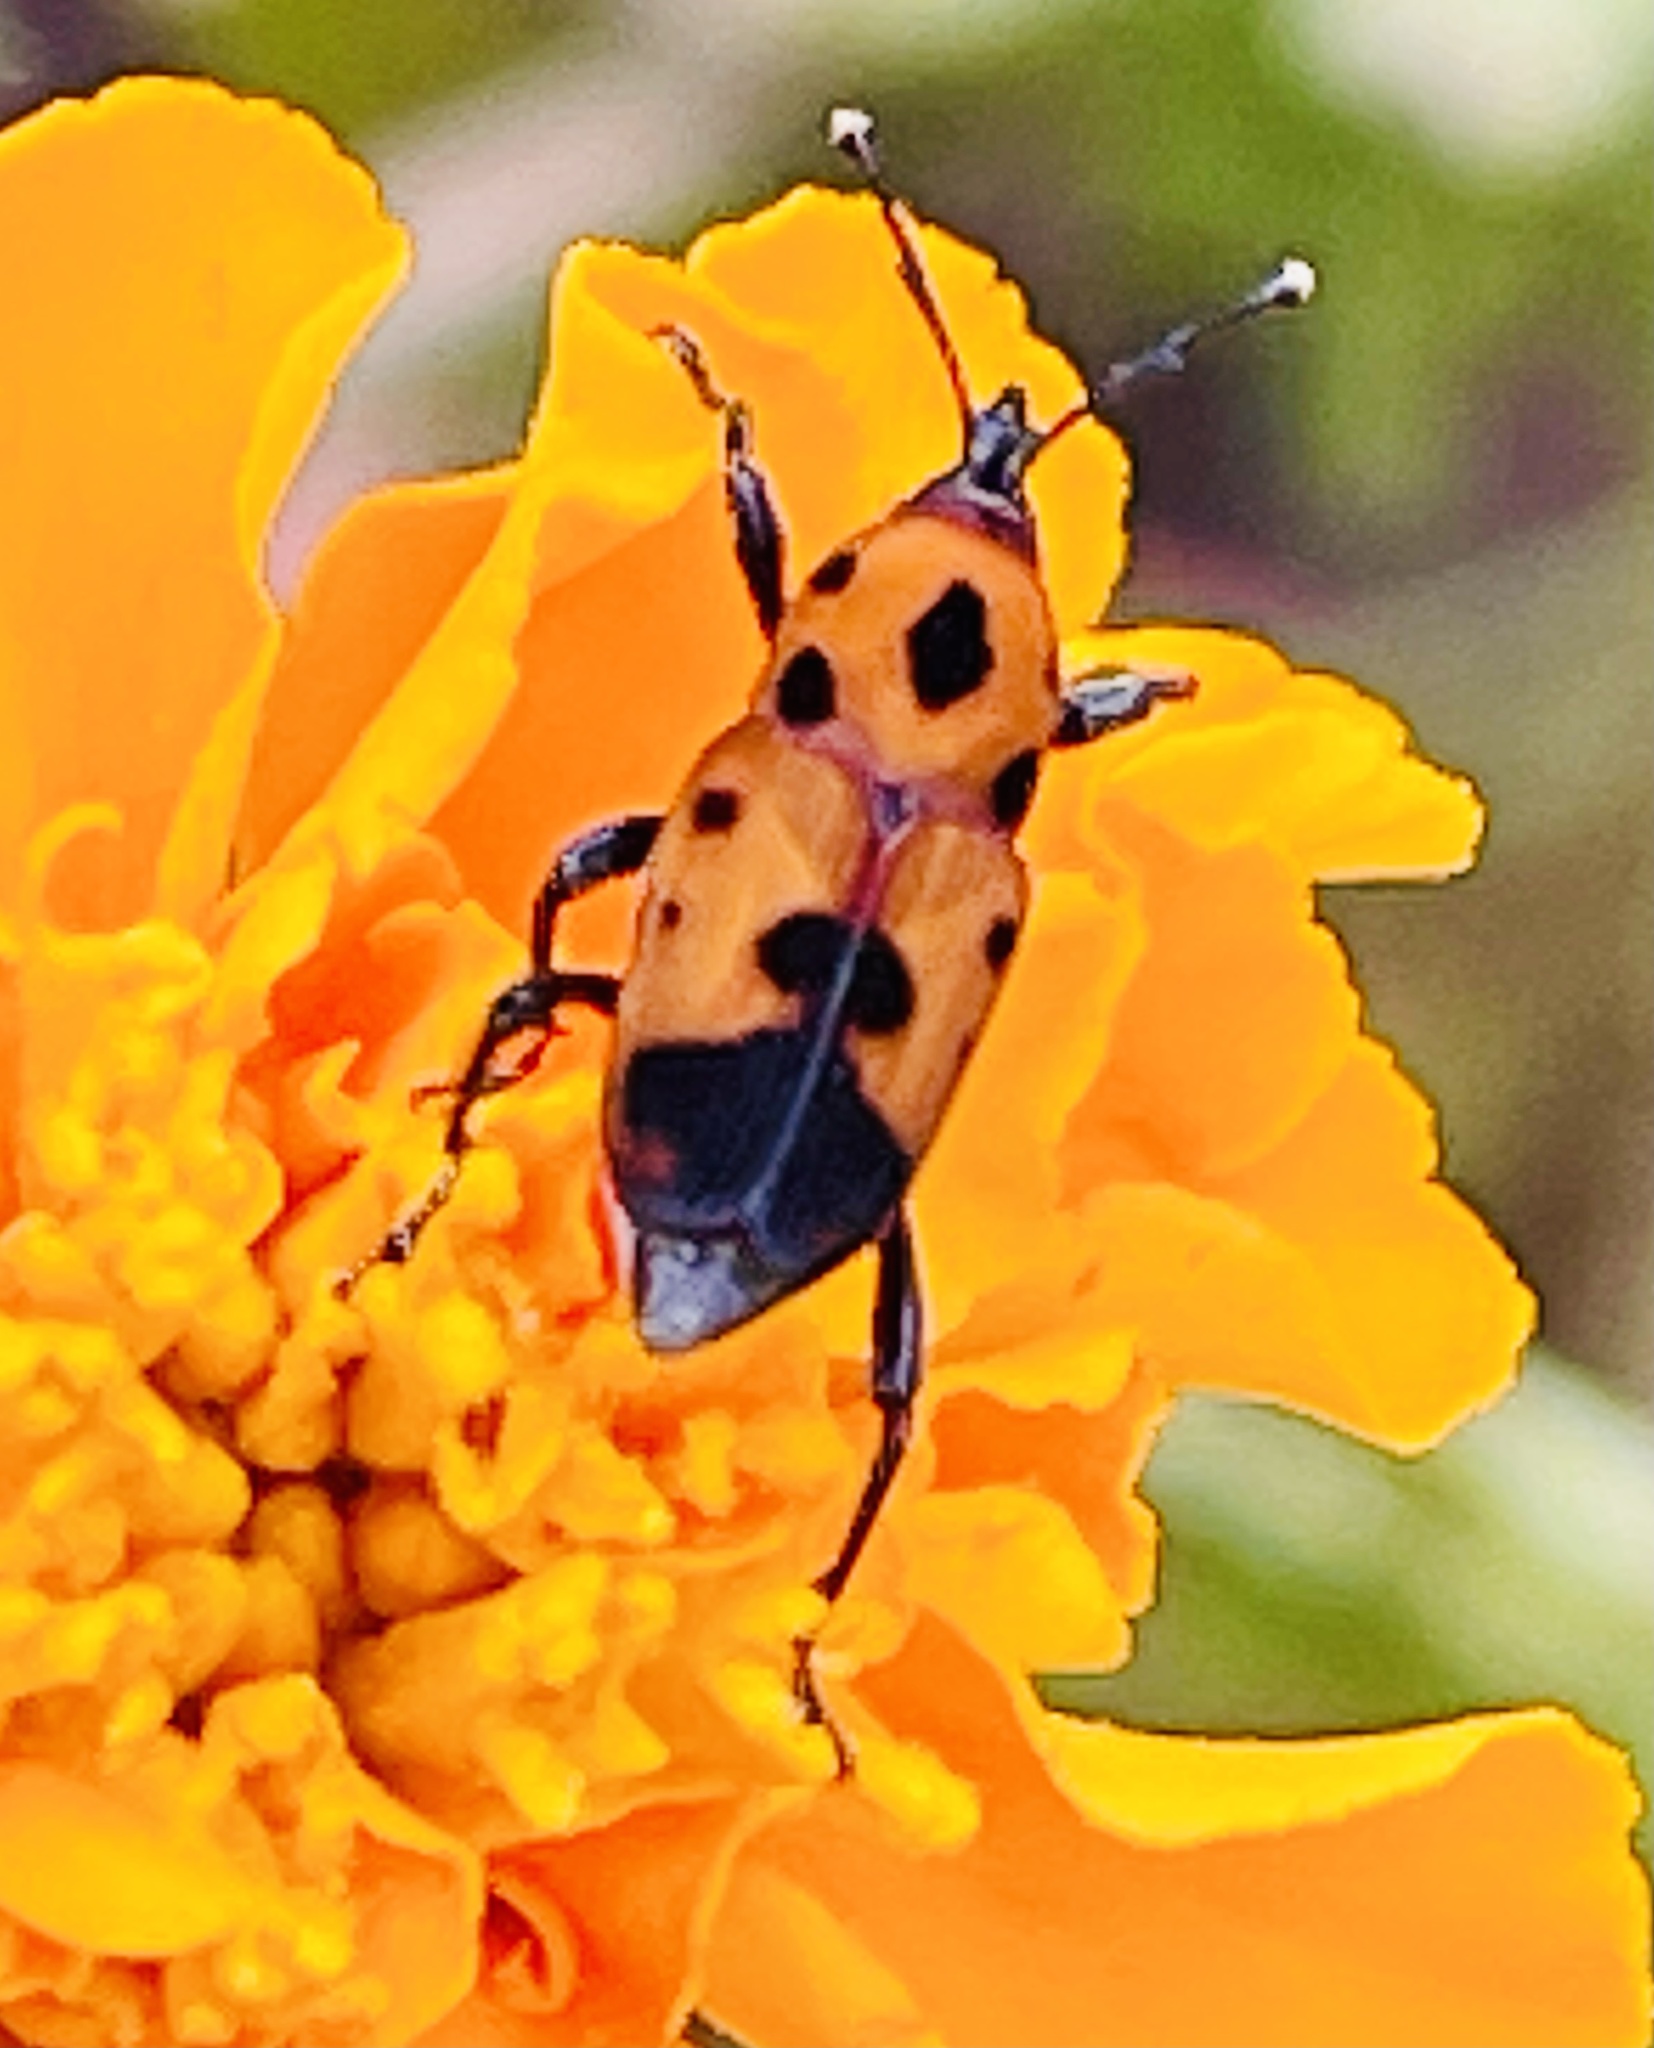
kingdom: Animalia
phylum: Arthropoda
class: Insecta
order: Coleoptera
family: Dryophthoridae
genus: Rhodobaenus
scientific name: Rhodobaenus quinquepunctatus
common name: Cocklebur weevil
